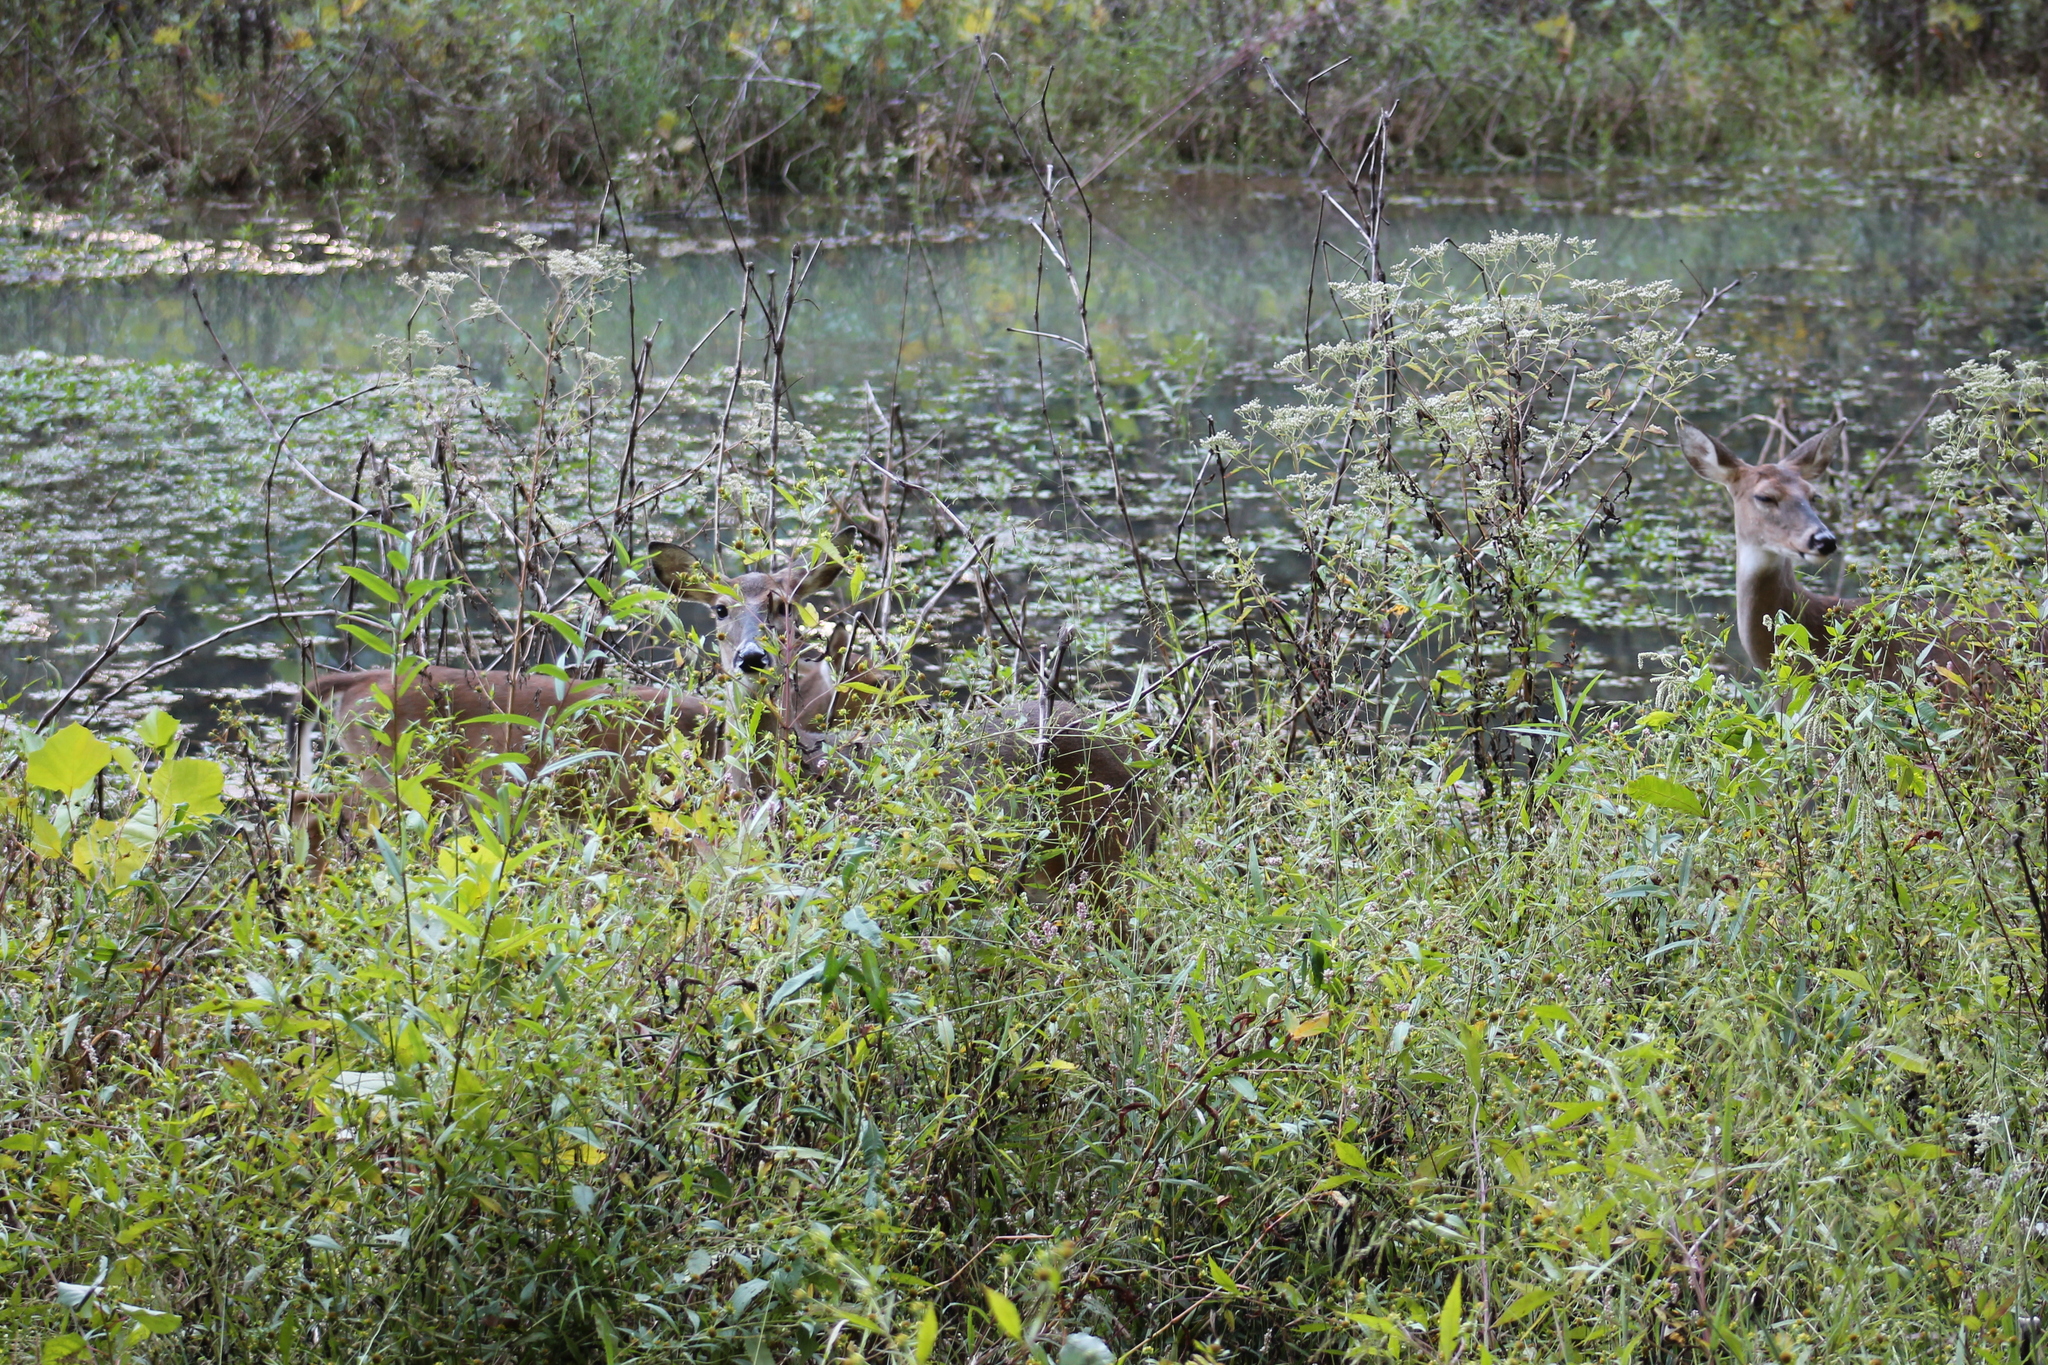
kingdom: Animalia
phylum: Chordata
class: Mammalia
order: Artiodactyla
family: Cervidae
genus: Odocoileus
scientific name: Odocoileus virginianus
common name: White-tailed deer
